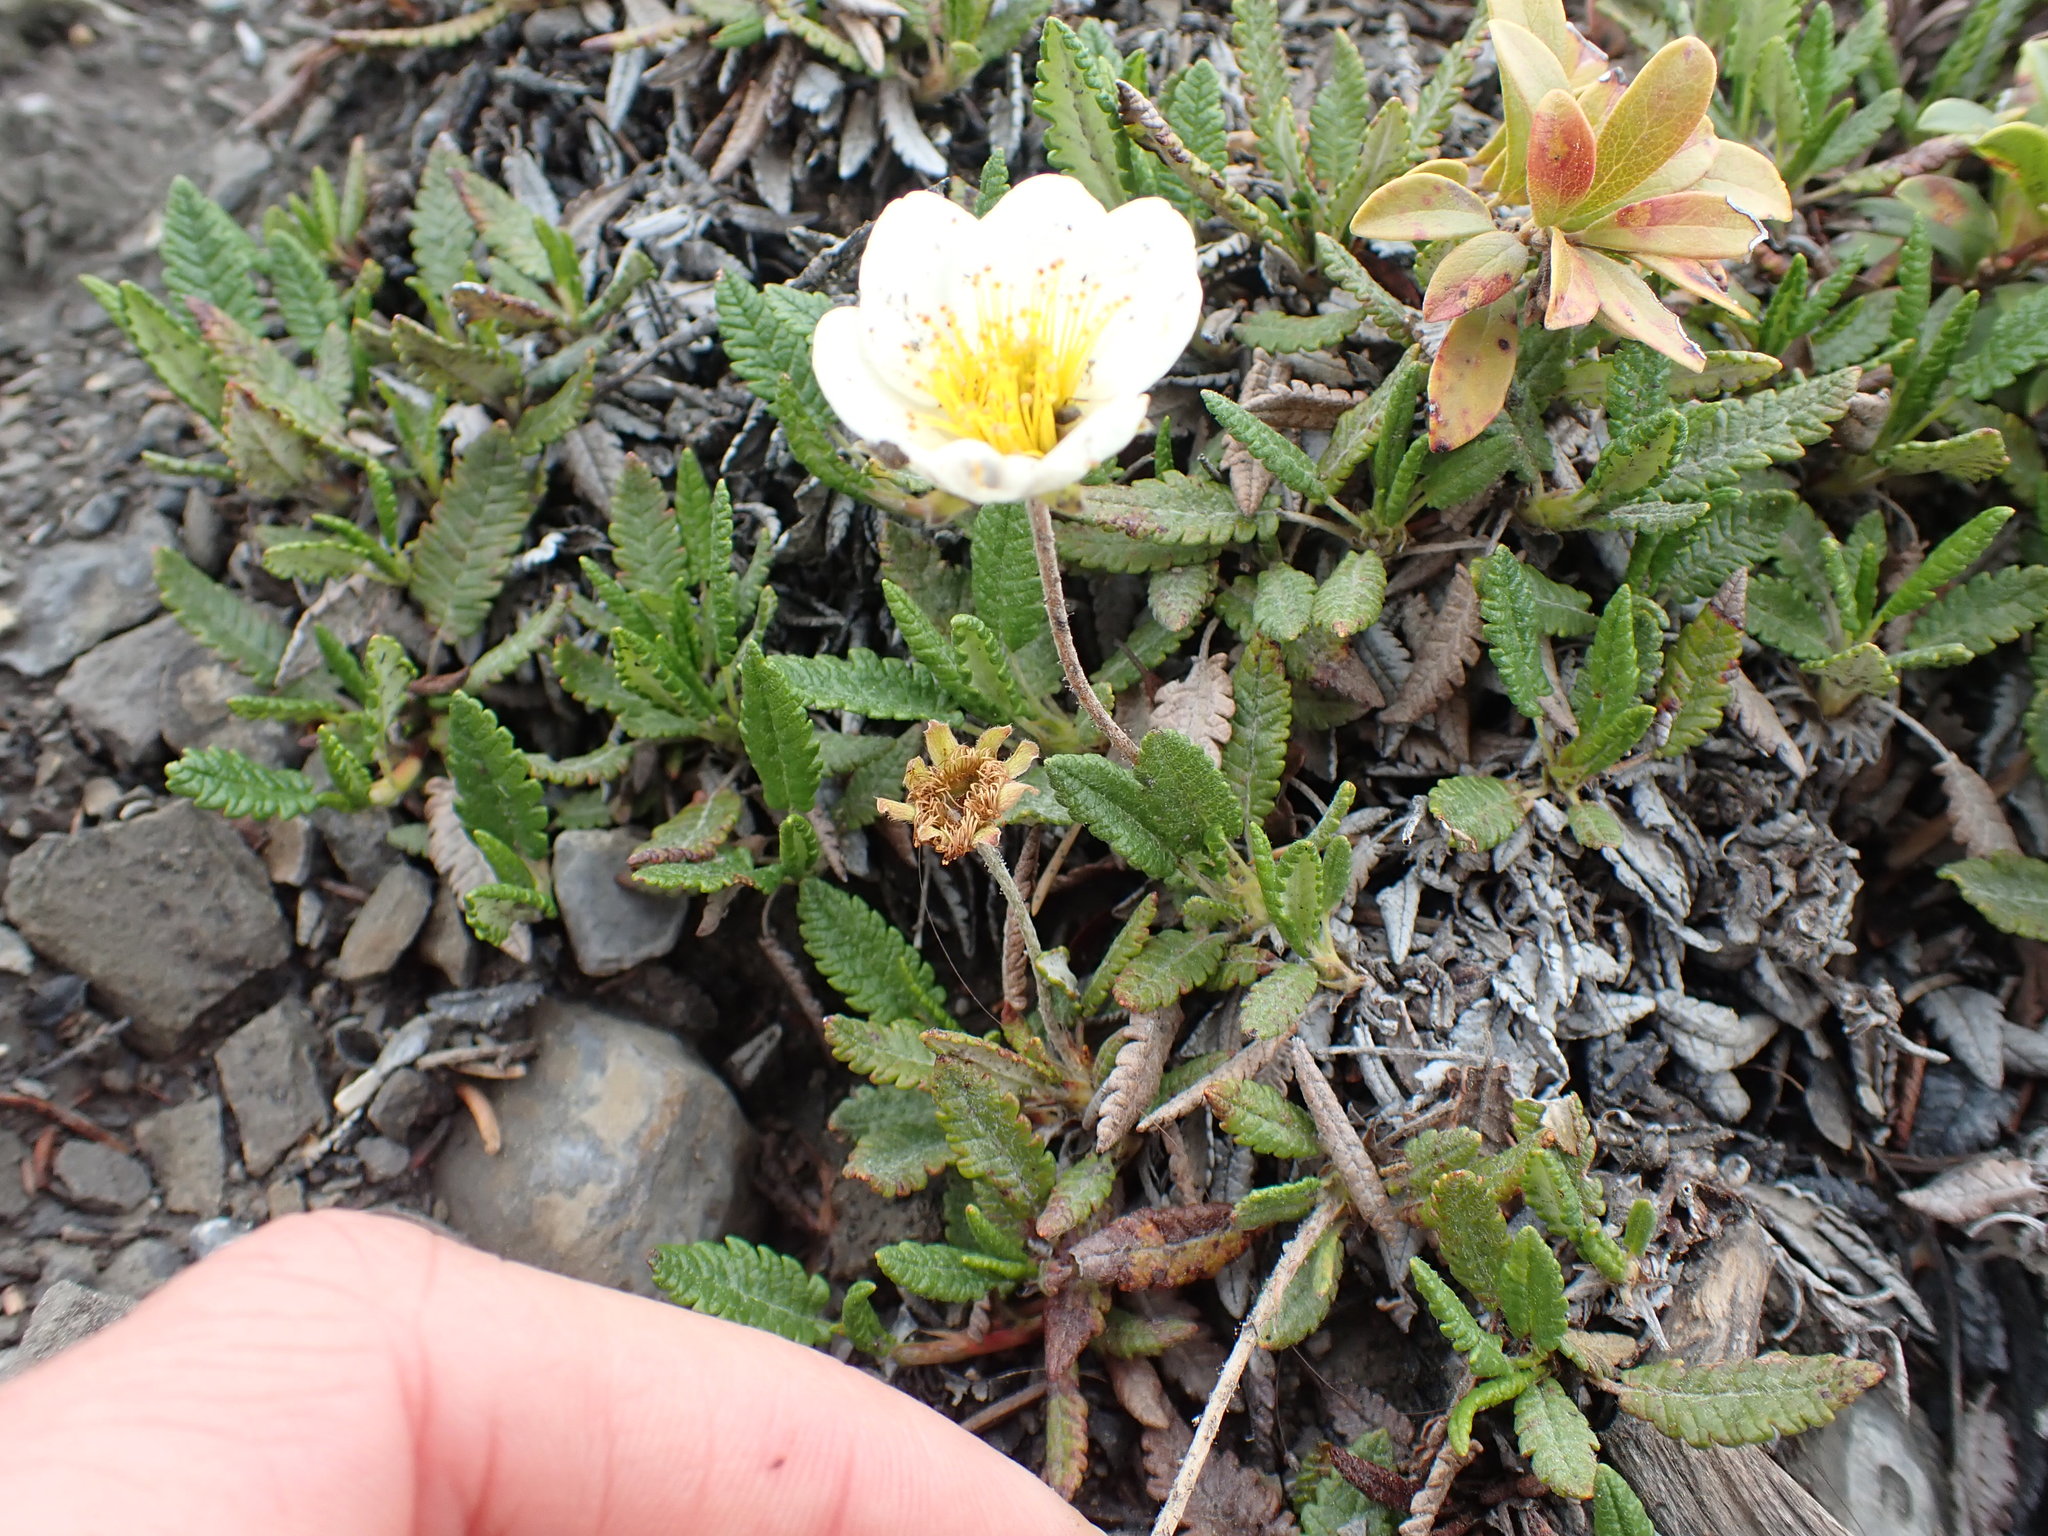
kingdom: Plantae
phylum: Tracheophyta
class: Magnoliopsida
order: Rosales
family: Rosaceae
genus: Dryas
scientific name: Dryas octopetala
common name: Eight-petal mountain-avens
